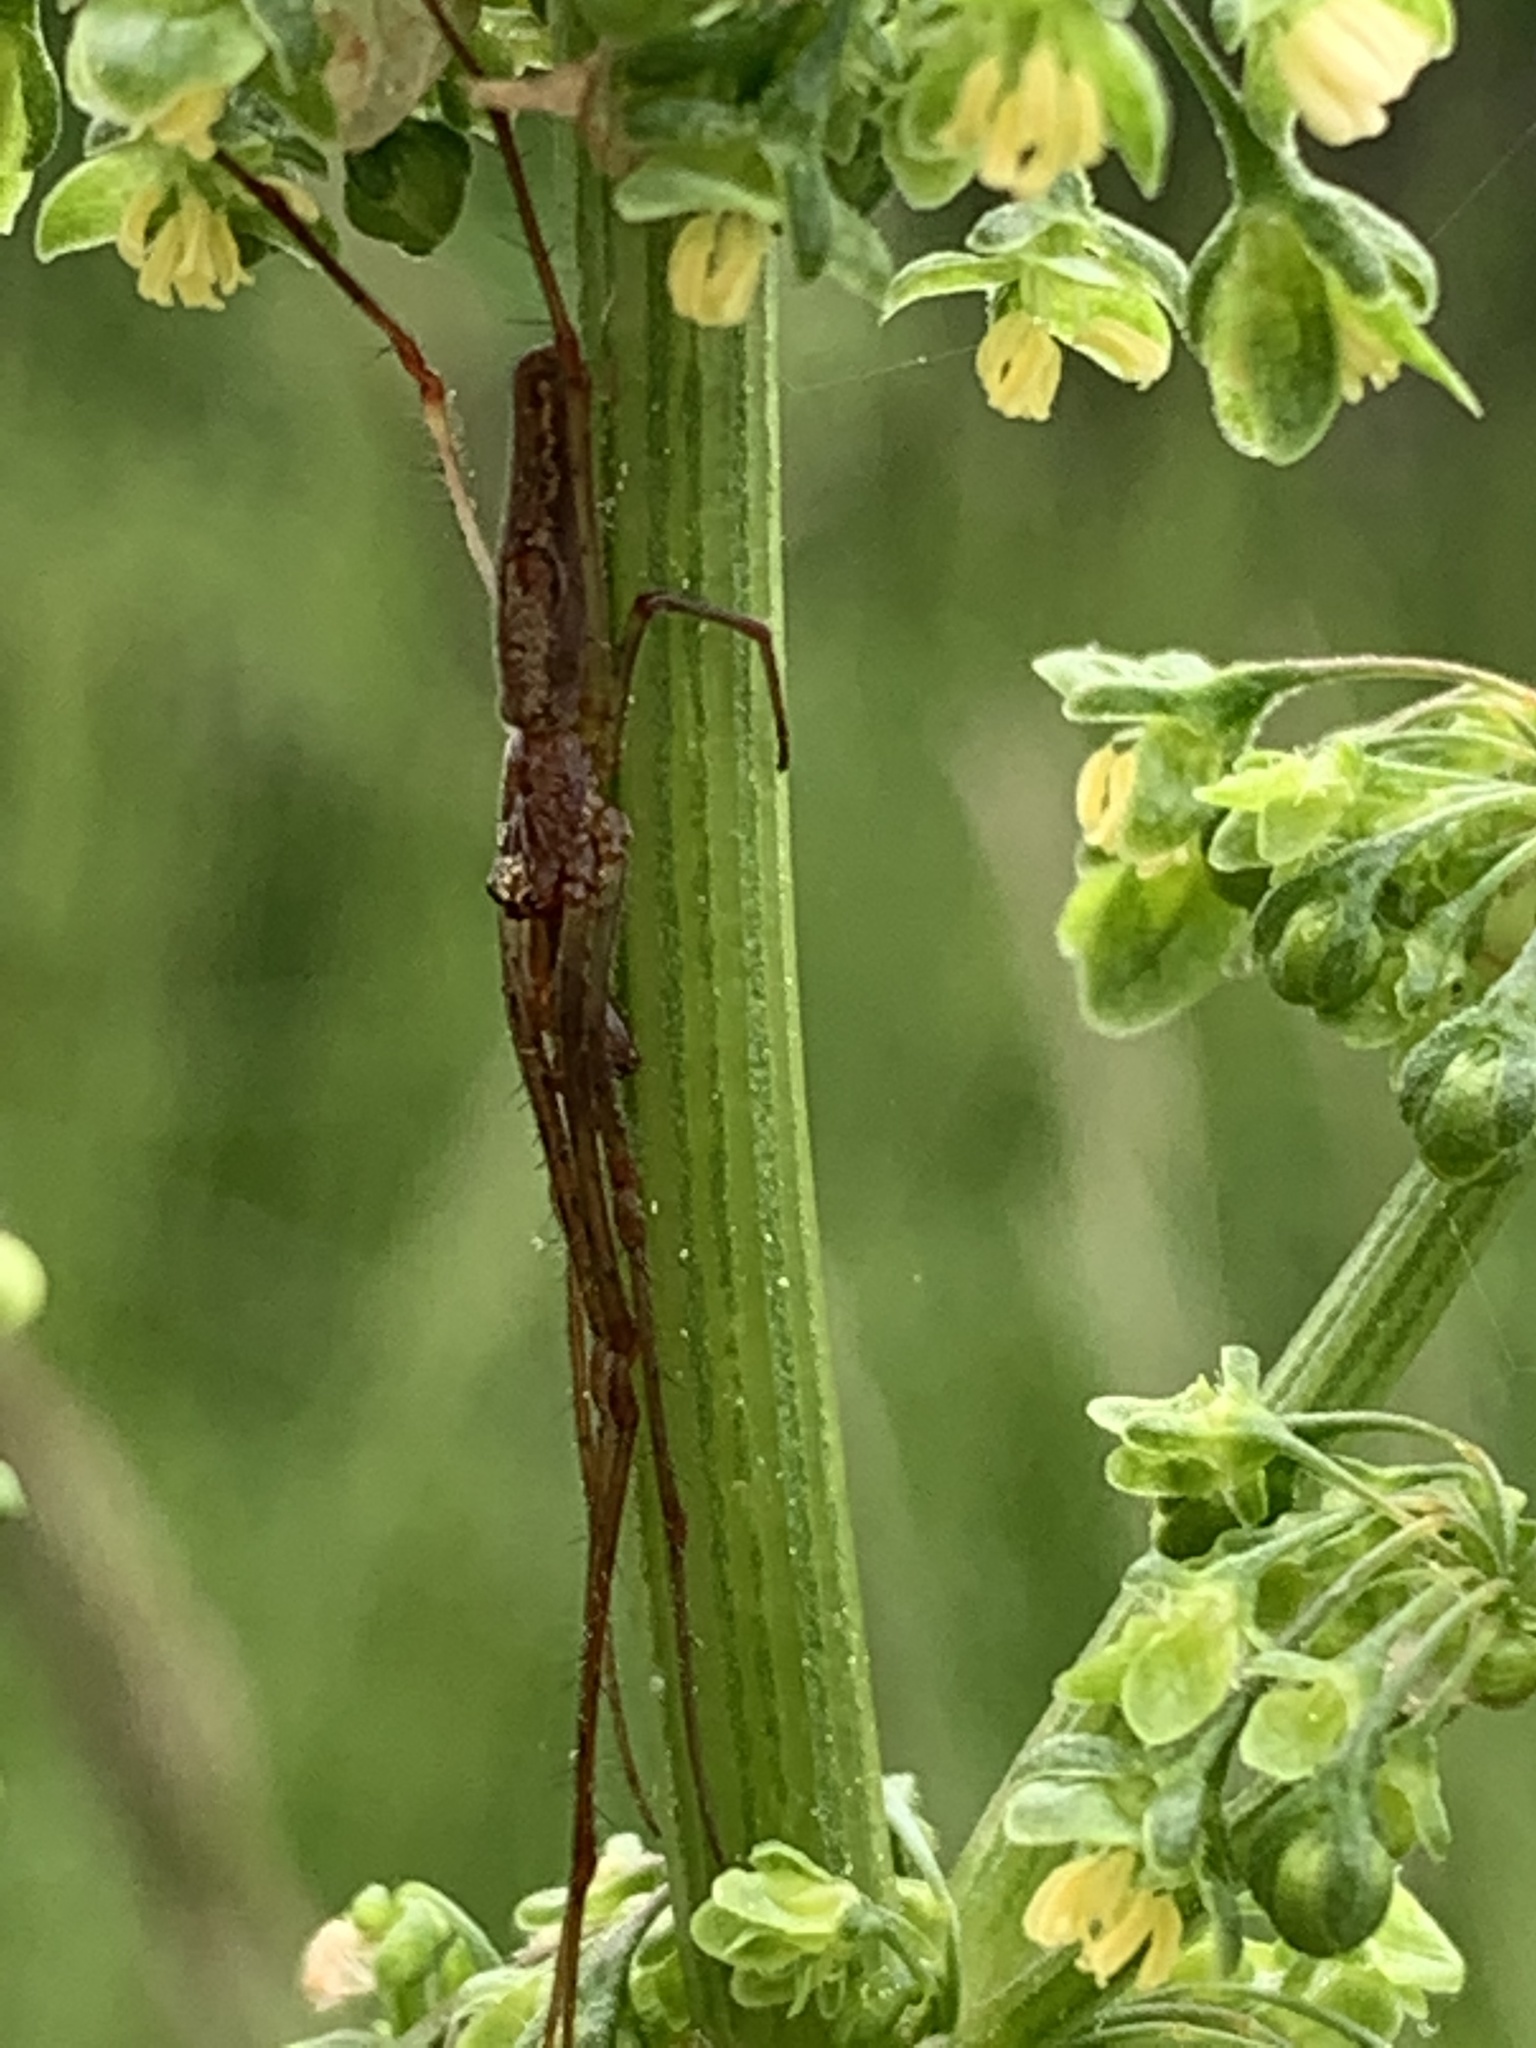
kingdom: Animalia
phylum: Arthropoda
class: Arachnida
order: Araneae
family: Tetragnathidae
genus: Tetragnatha
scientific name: Tetragnatha
